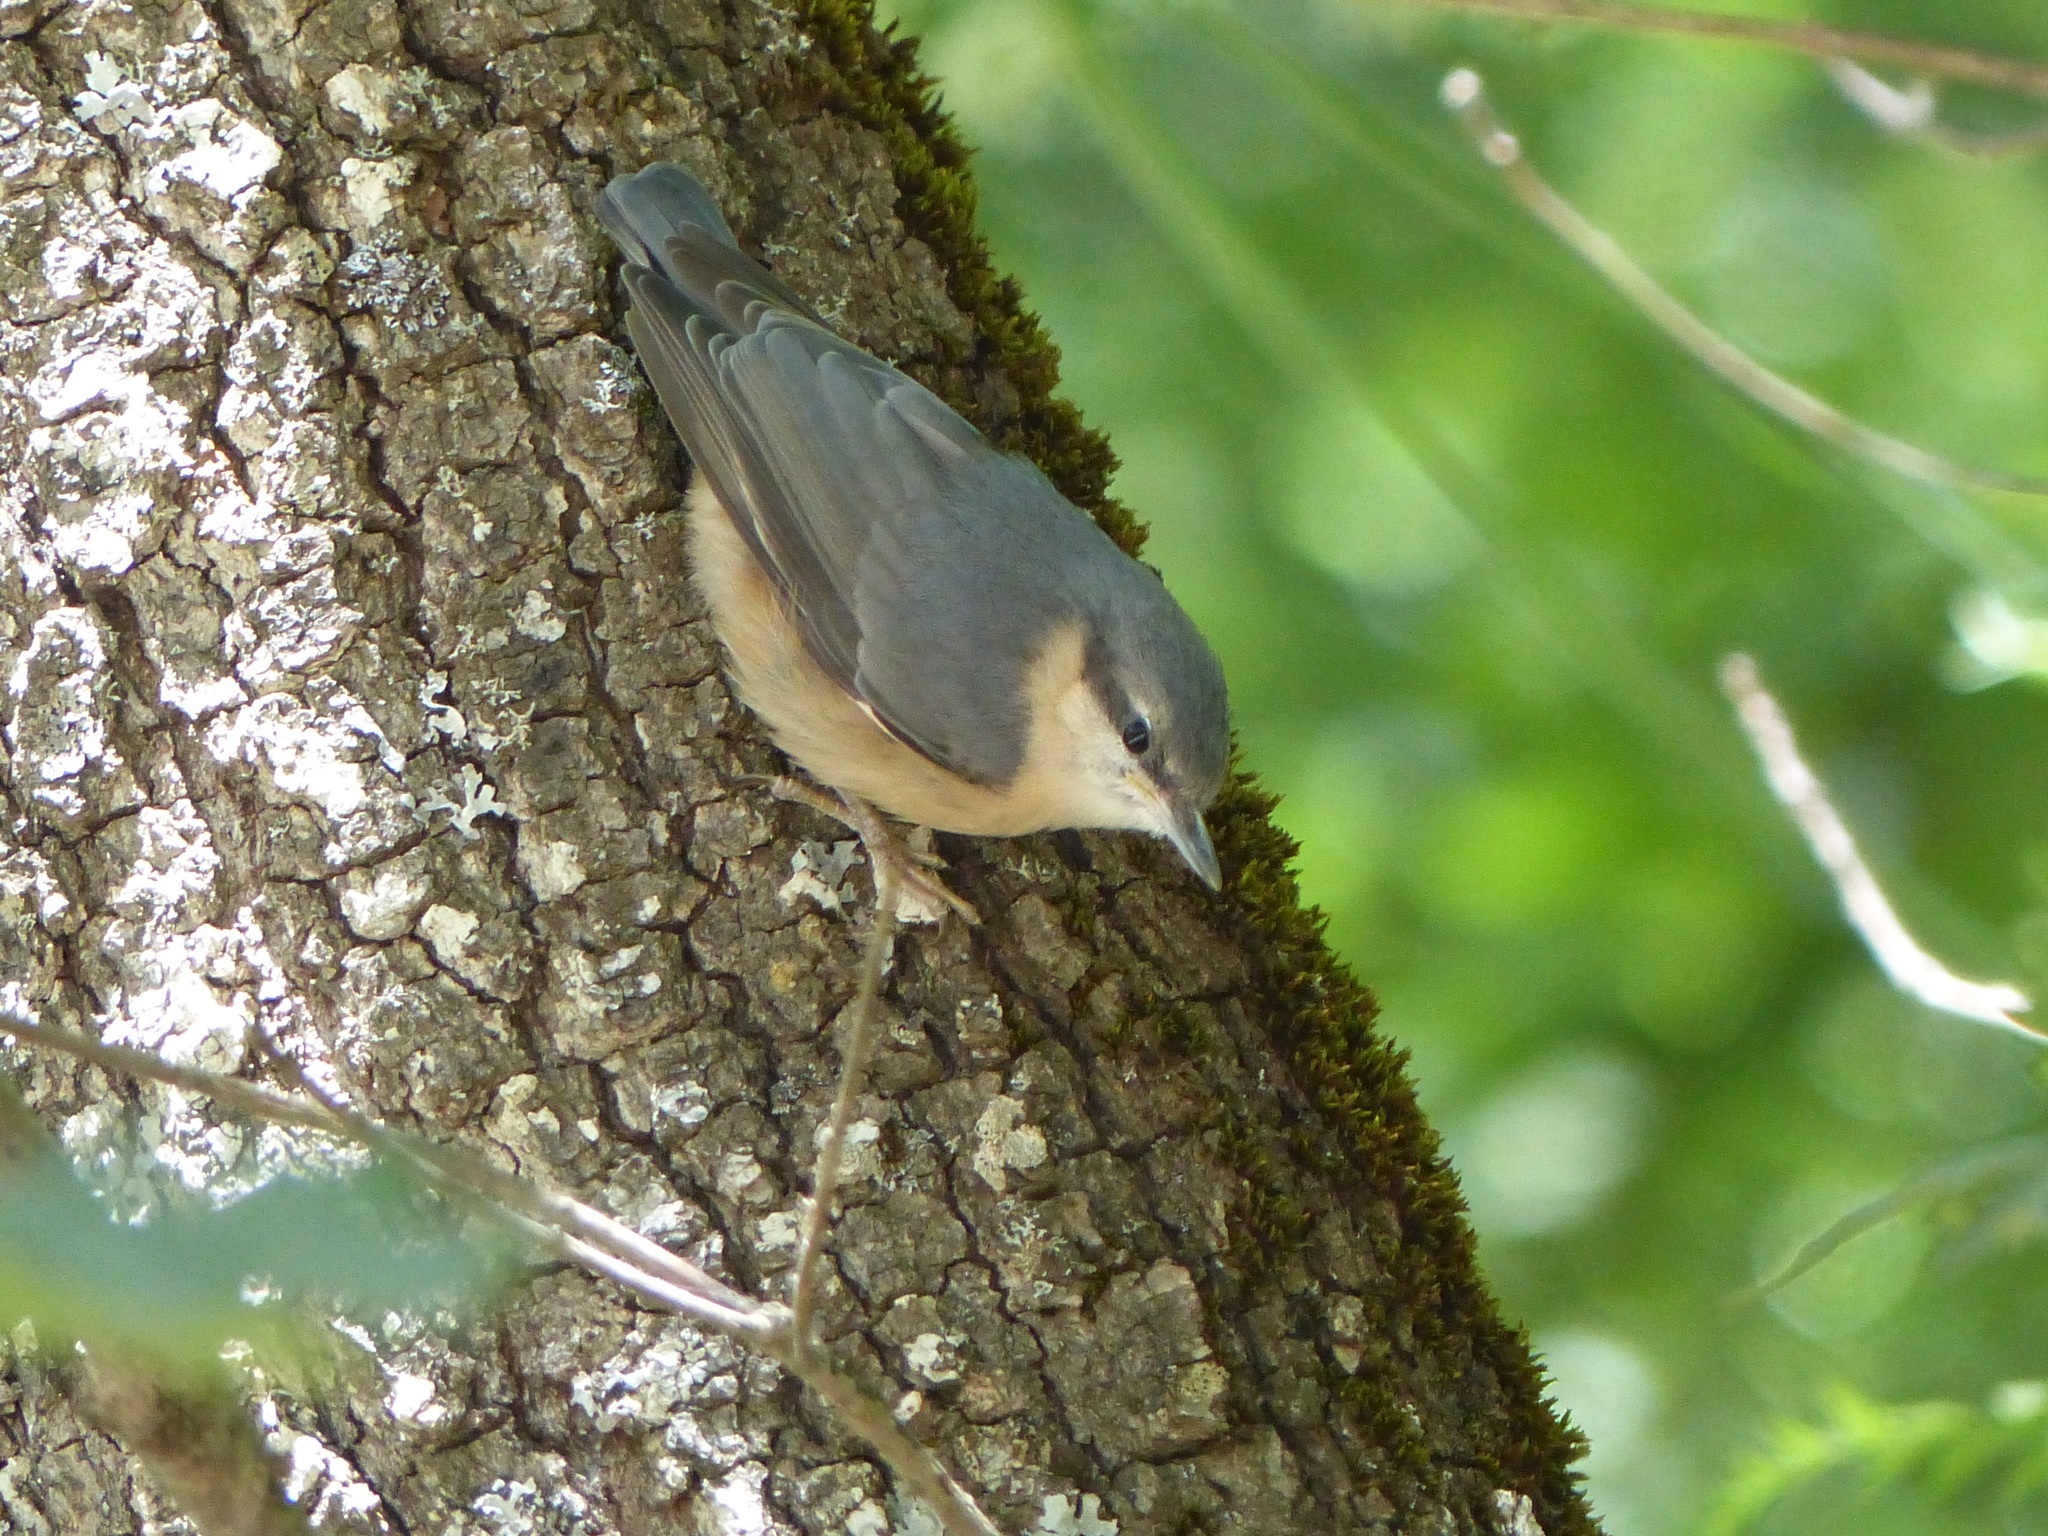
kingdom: Animalia
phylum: Chordata
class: Aves
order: Passeriformes
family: Sittidae
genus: Sitta
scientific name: Sitta europaea
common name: Eurasian nuthatch
